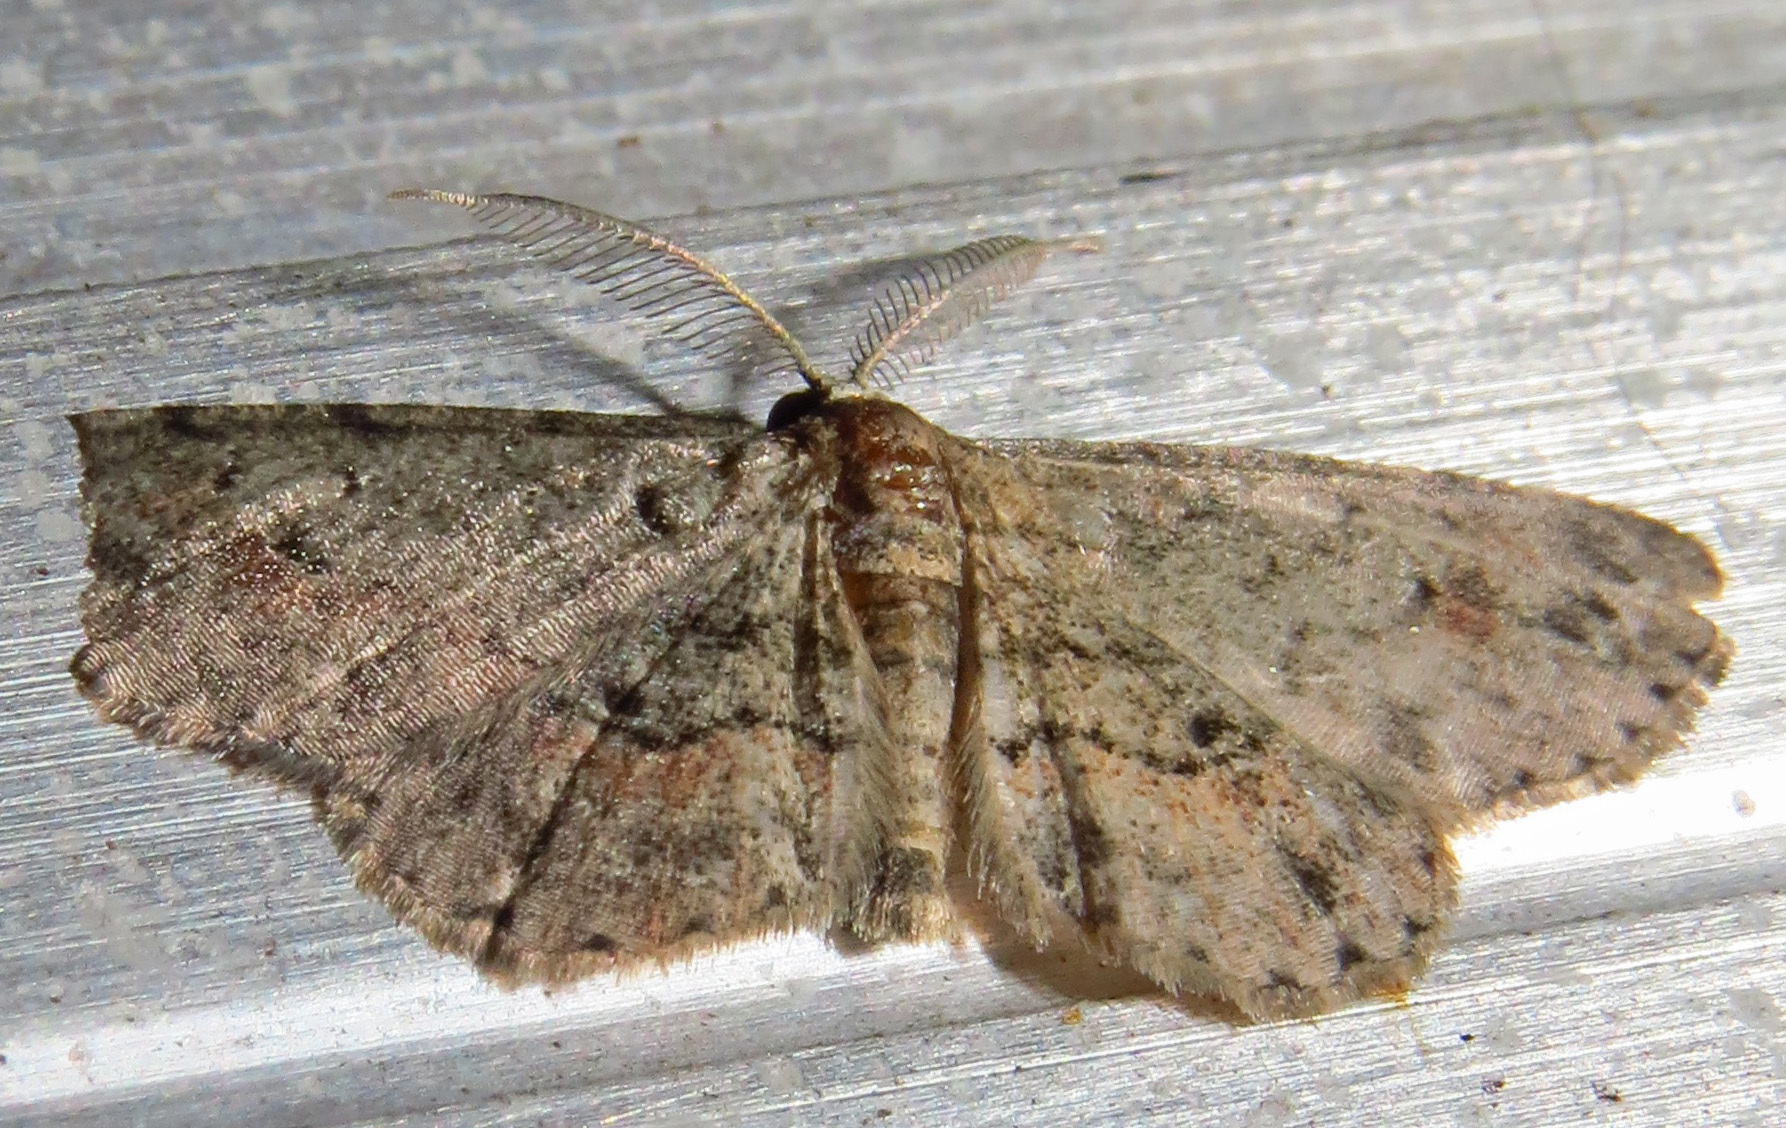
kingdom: Animalia
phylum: Arthropoda
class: Insecta
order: Lepidoptera
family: Geometridae
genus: Glenoides
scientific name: Glenoides texanaria
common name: Texas gray
